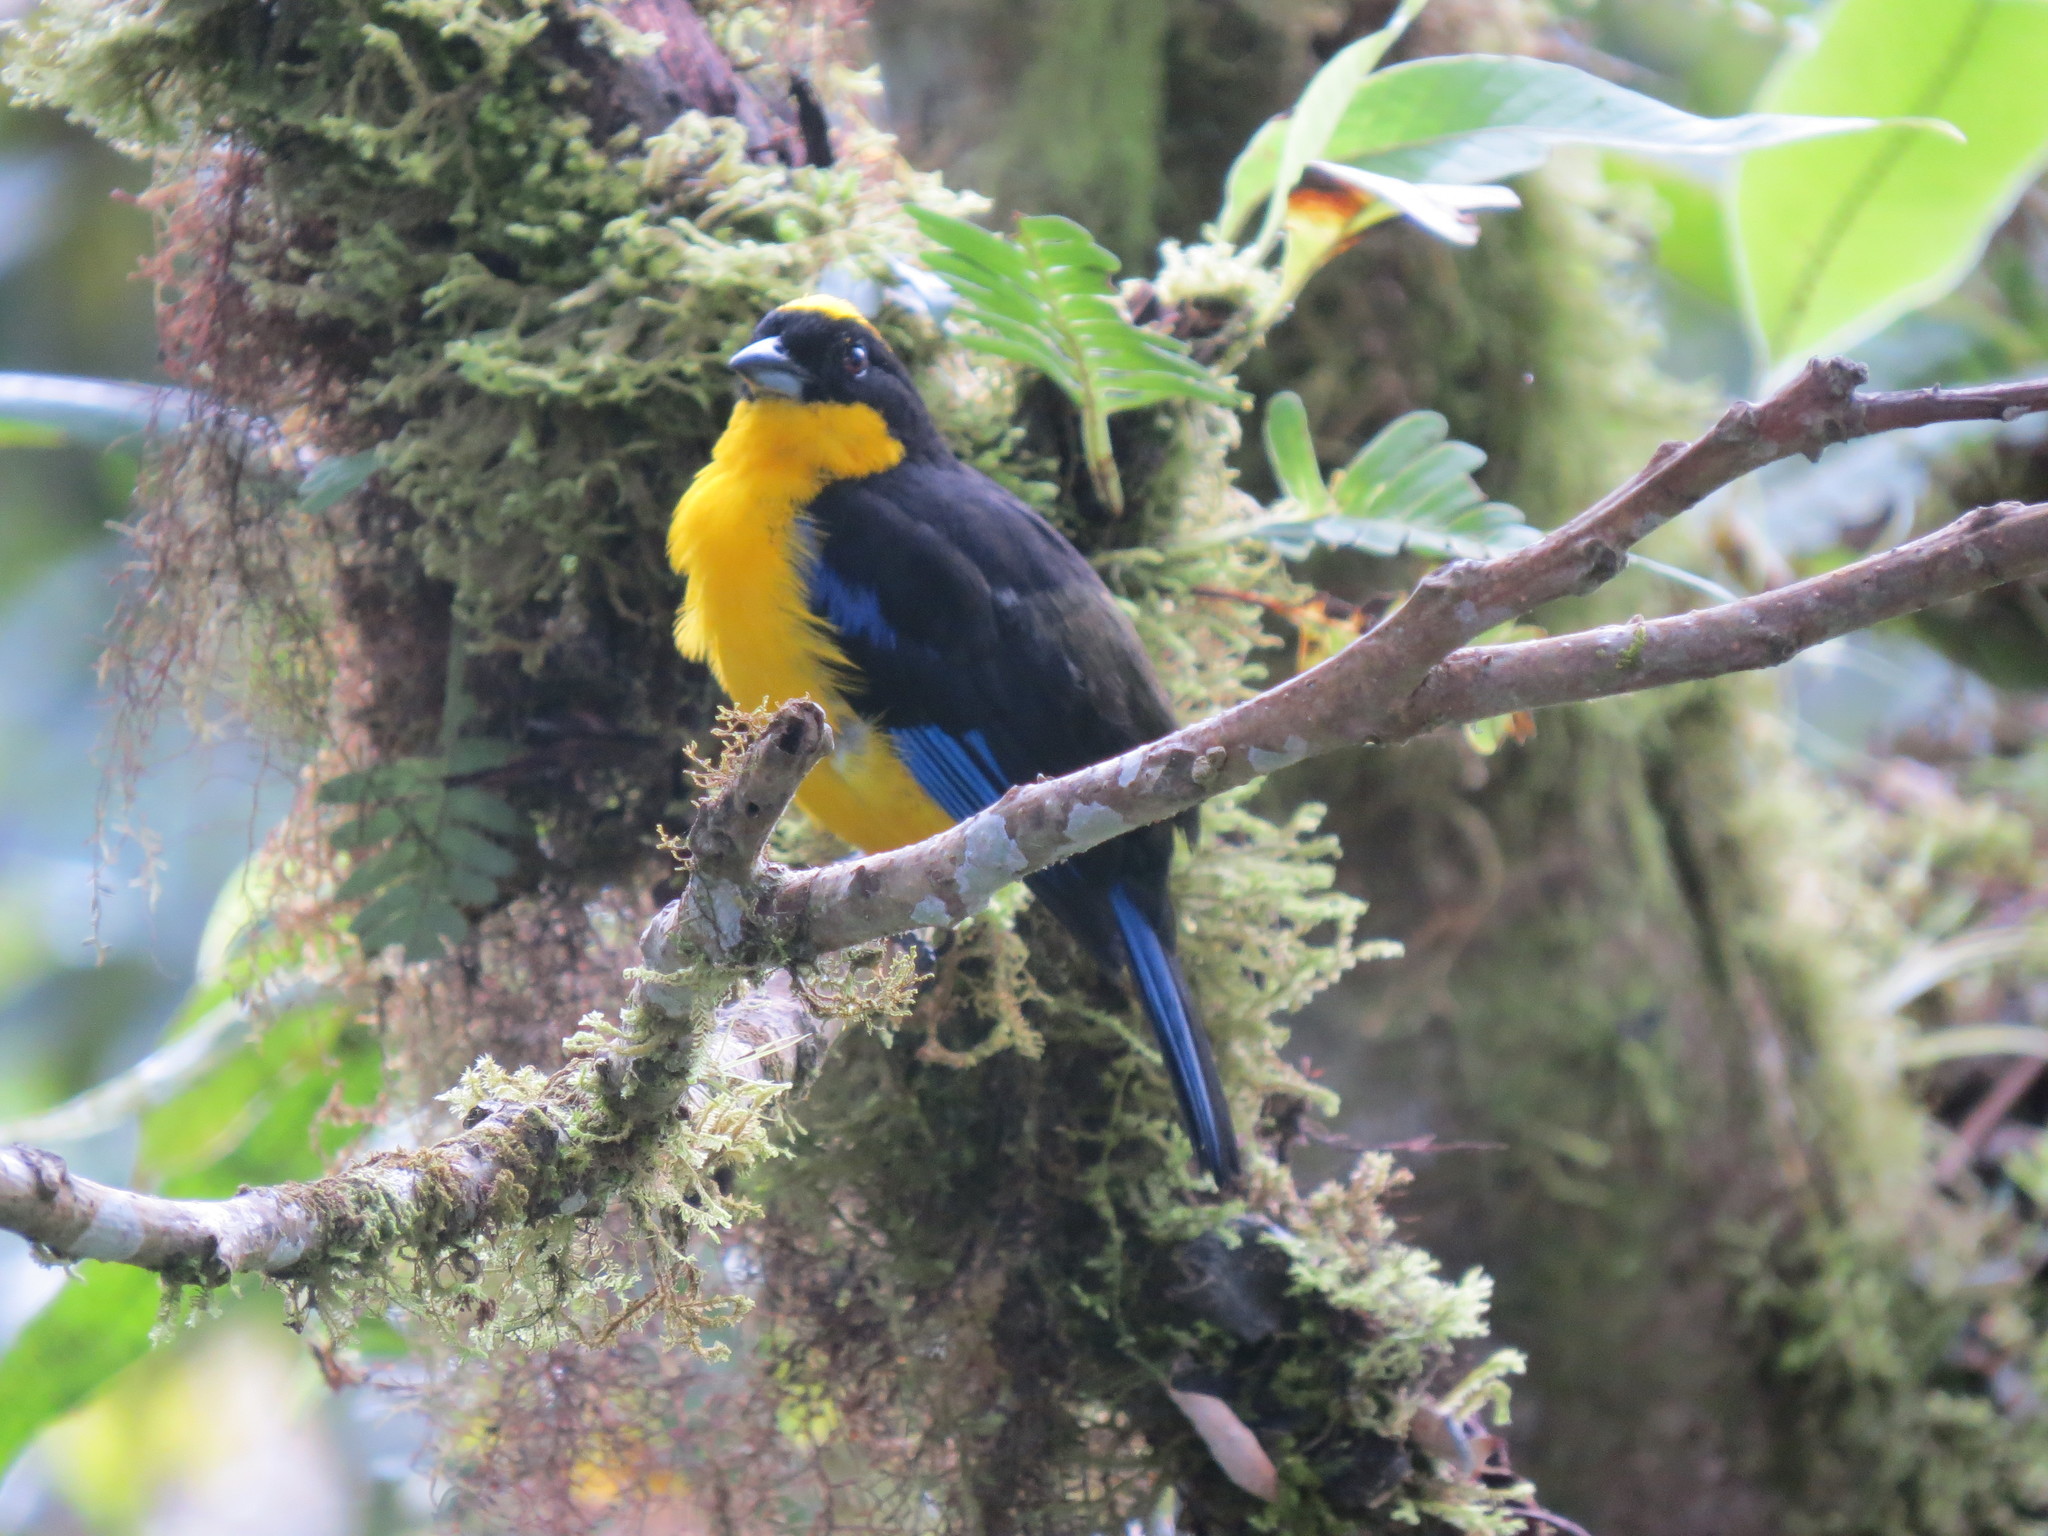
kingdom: Animalia
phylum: Chordata
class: Aves
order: Passeriformes
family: Thraupidae
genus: Anisognathus
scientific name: Anisognathus somptuosus
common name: Blue-winged mountain-tanager
